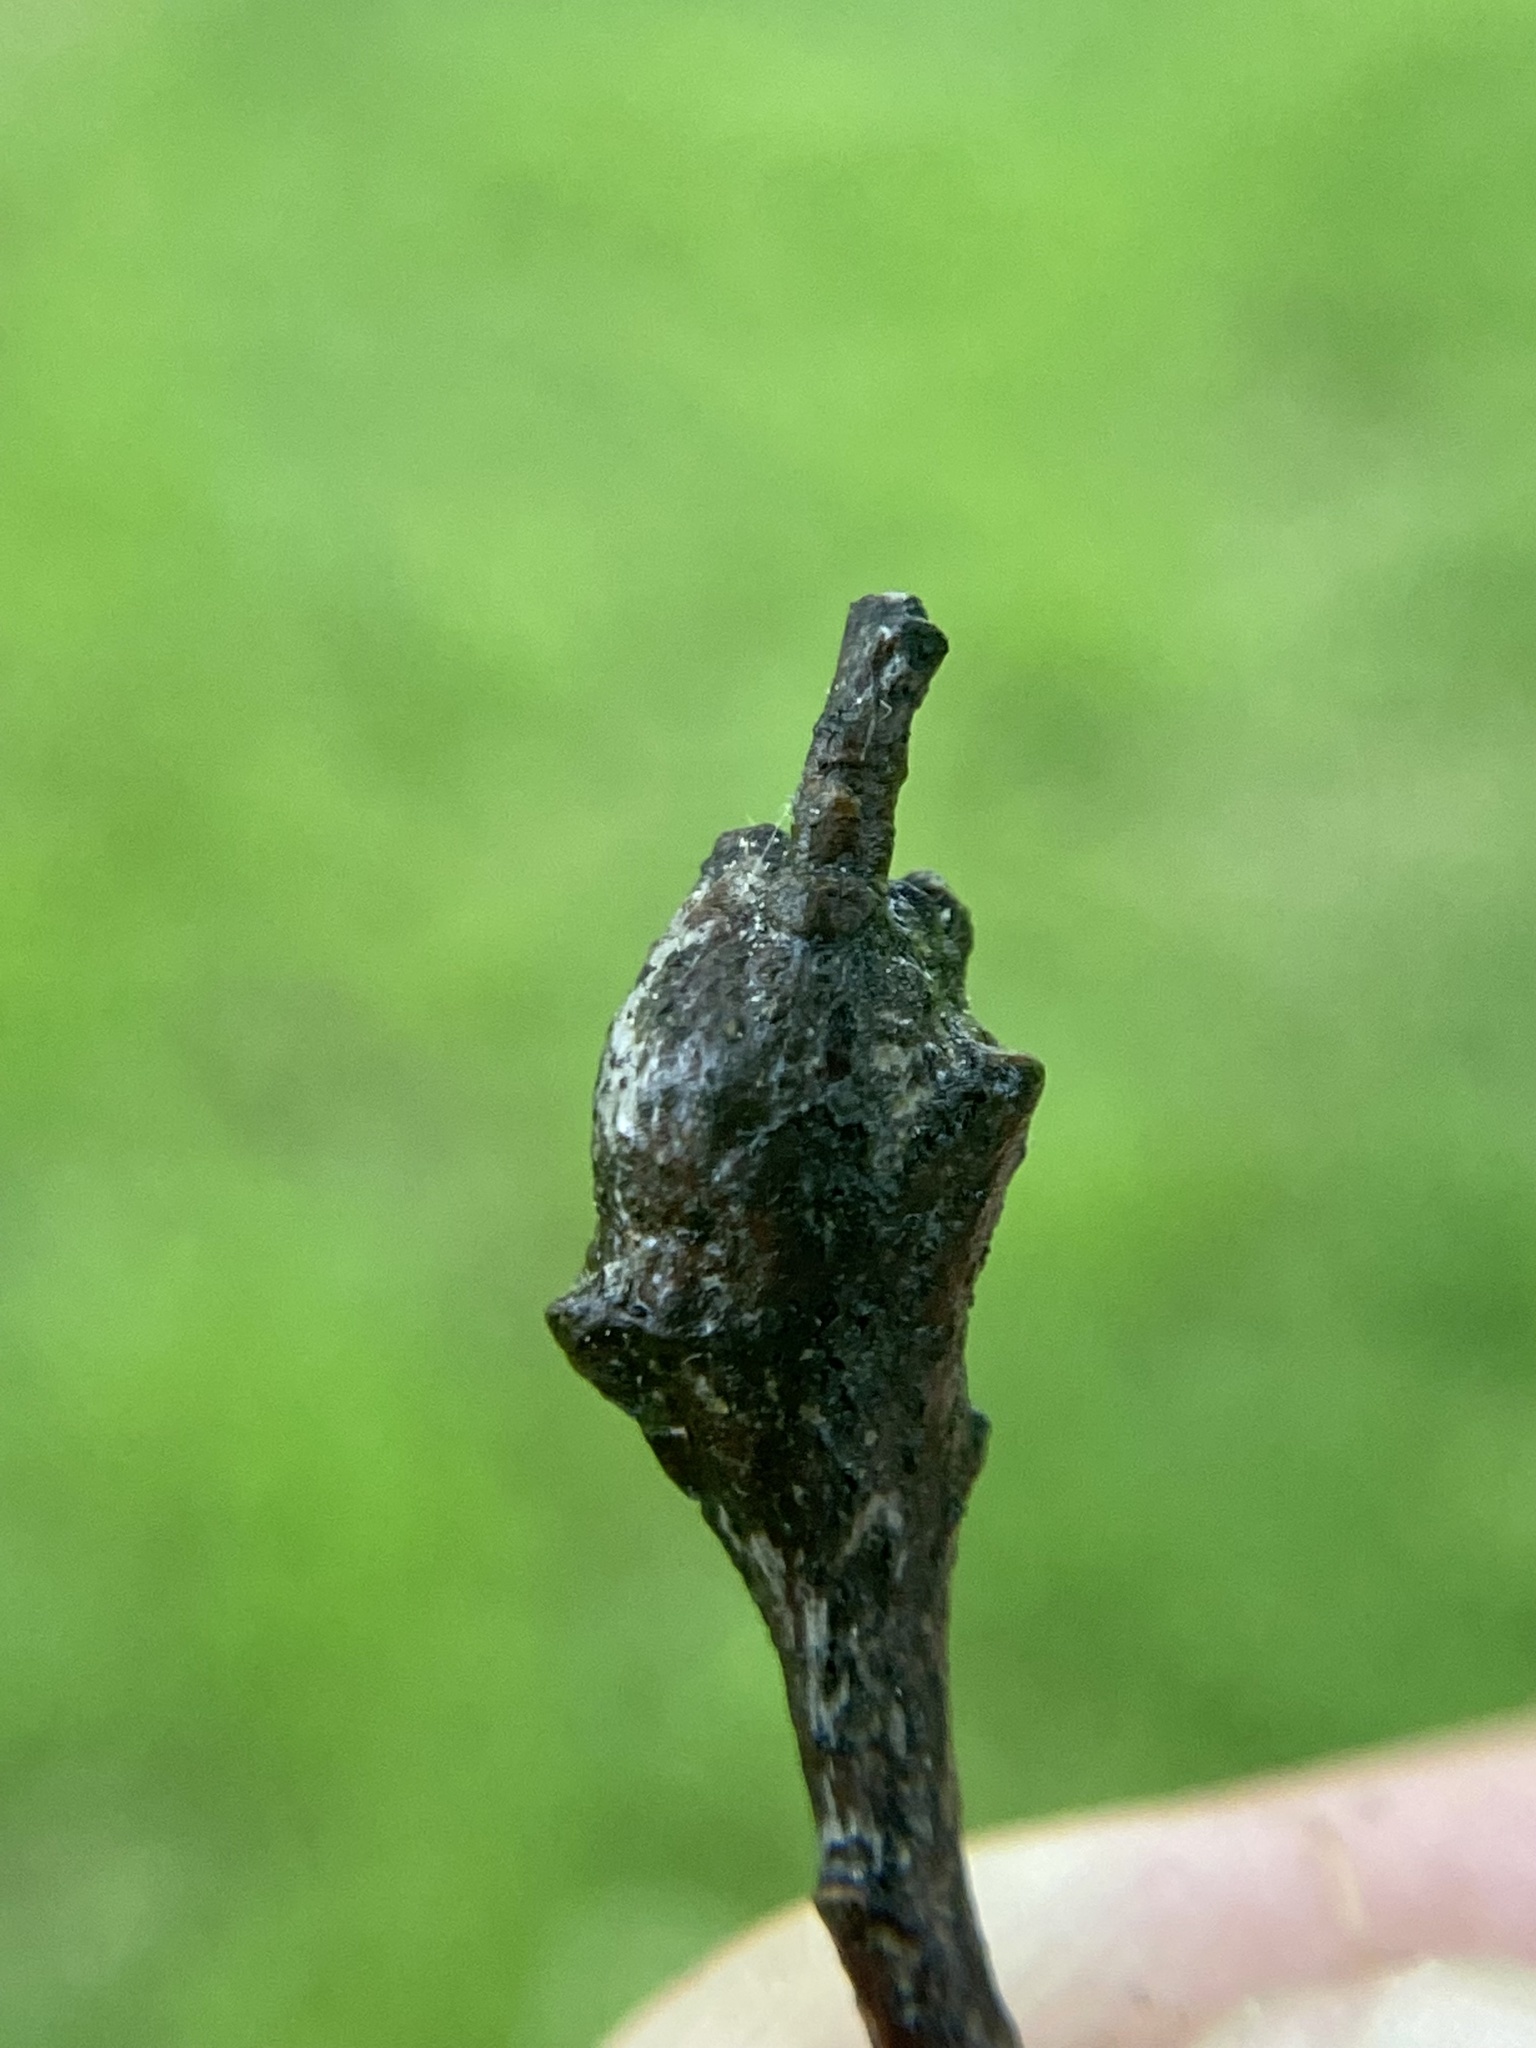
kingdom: Animalia
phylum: Arthropoda
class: Insecta
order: Hymenoptera
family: Cynipidae
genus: Callirhytis
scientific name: Callirhytis clavula
